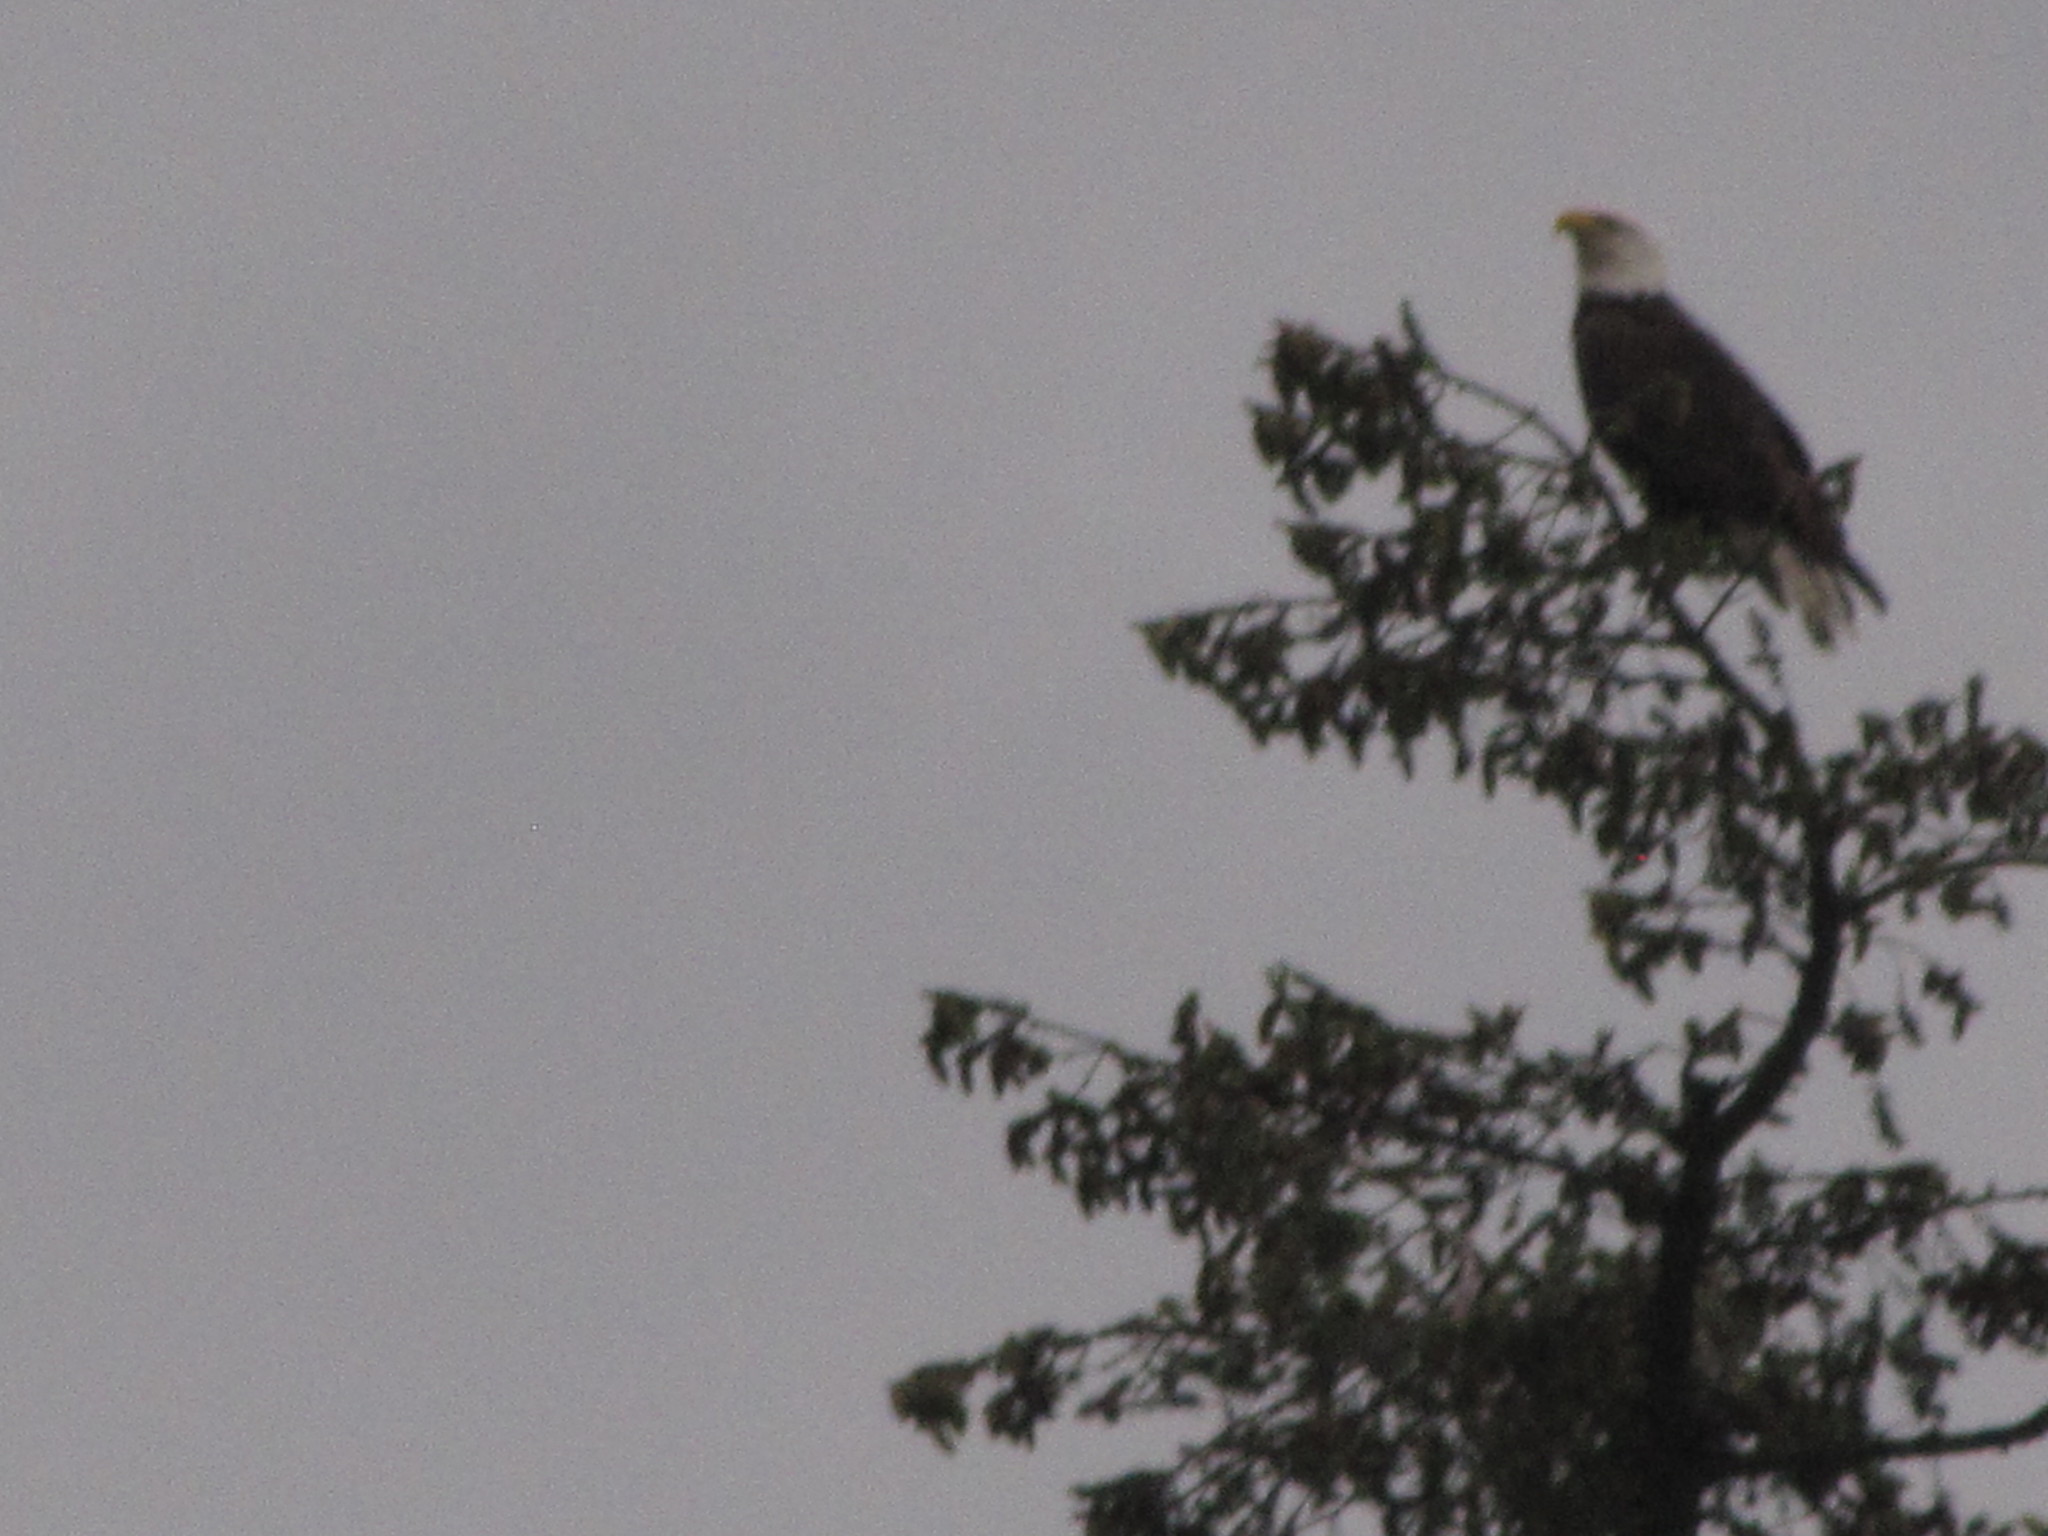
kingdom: Animalia
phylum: Chordata
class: Aves
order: Accipitriformes
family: Accipitridae
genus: Haliaeetus
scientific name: Haliaeetus leucocephalus
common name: Bald eagle
